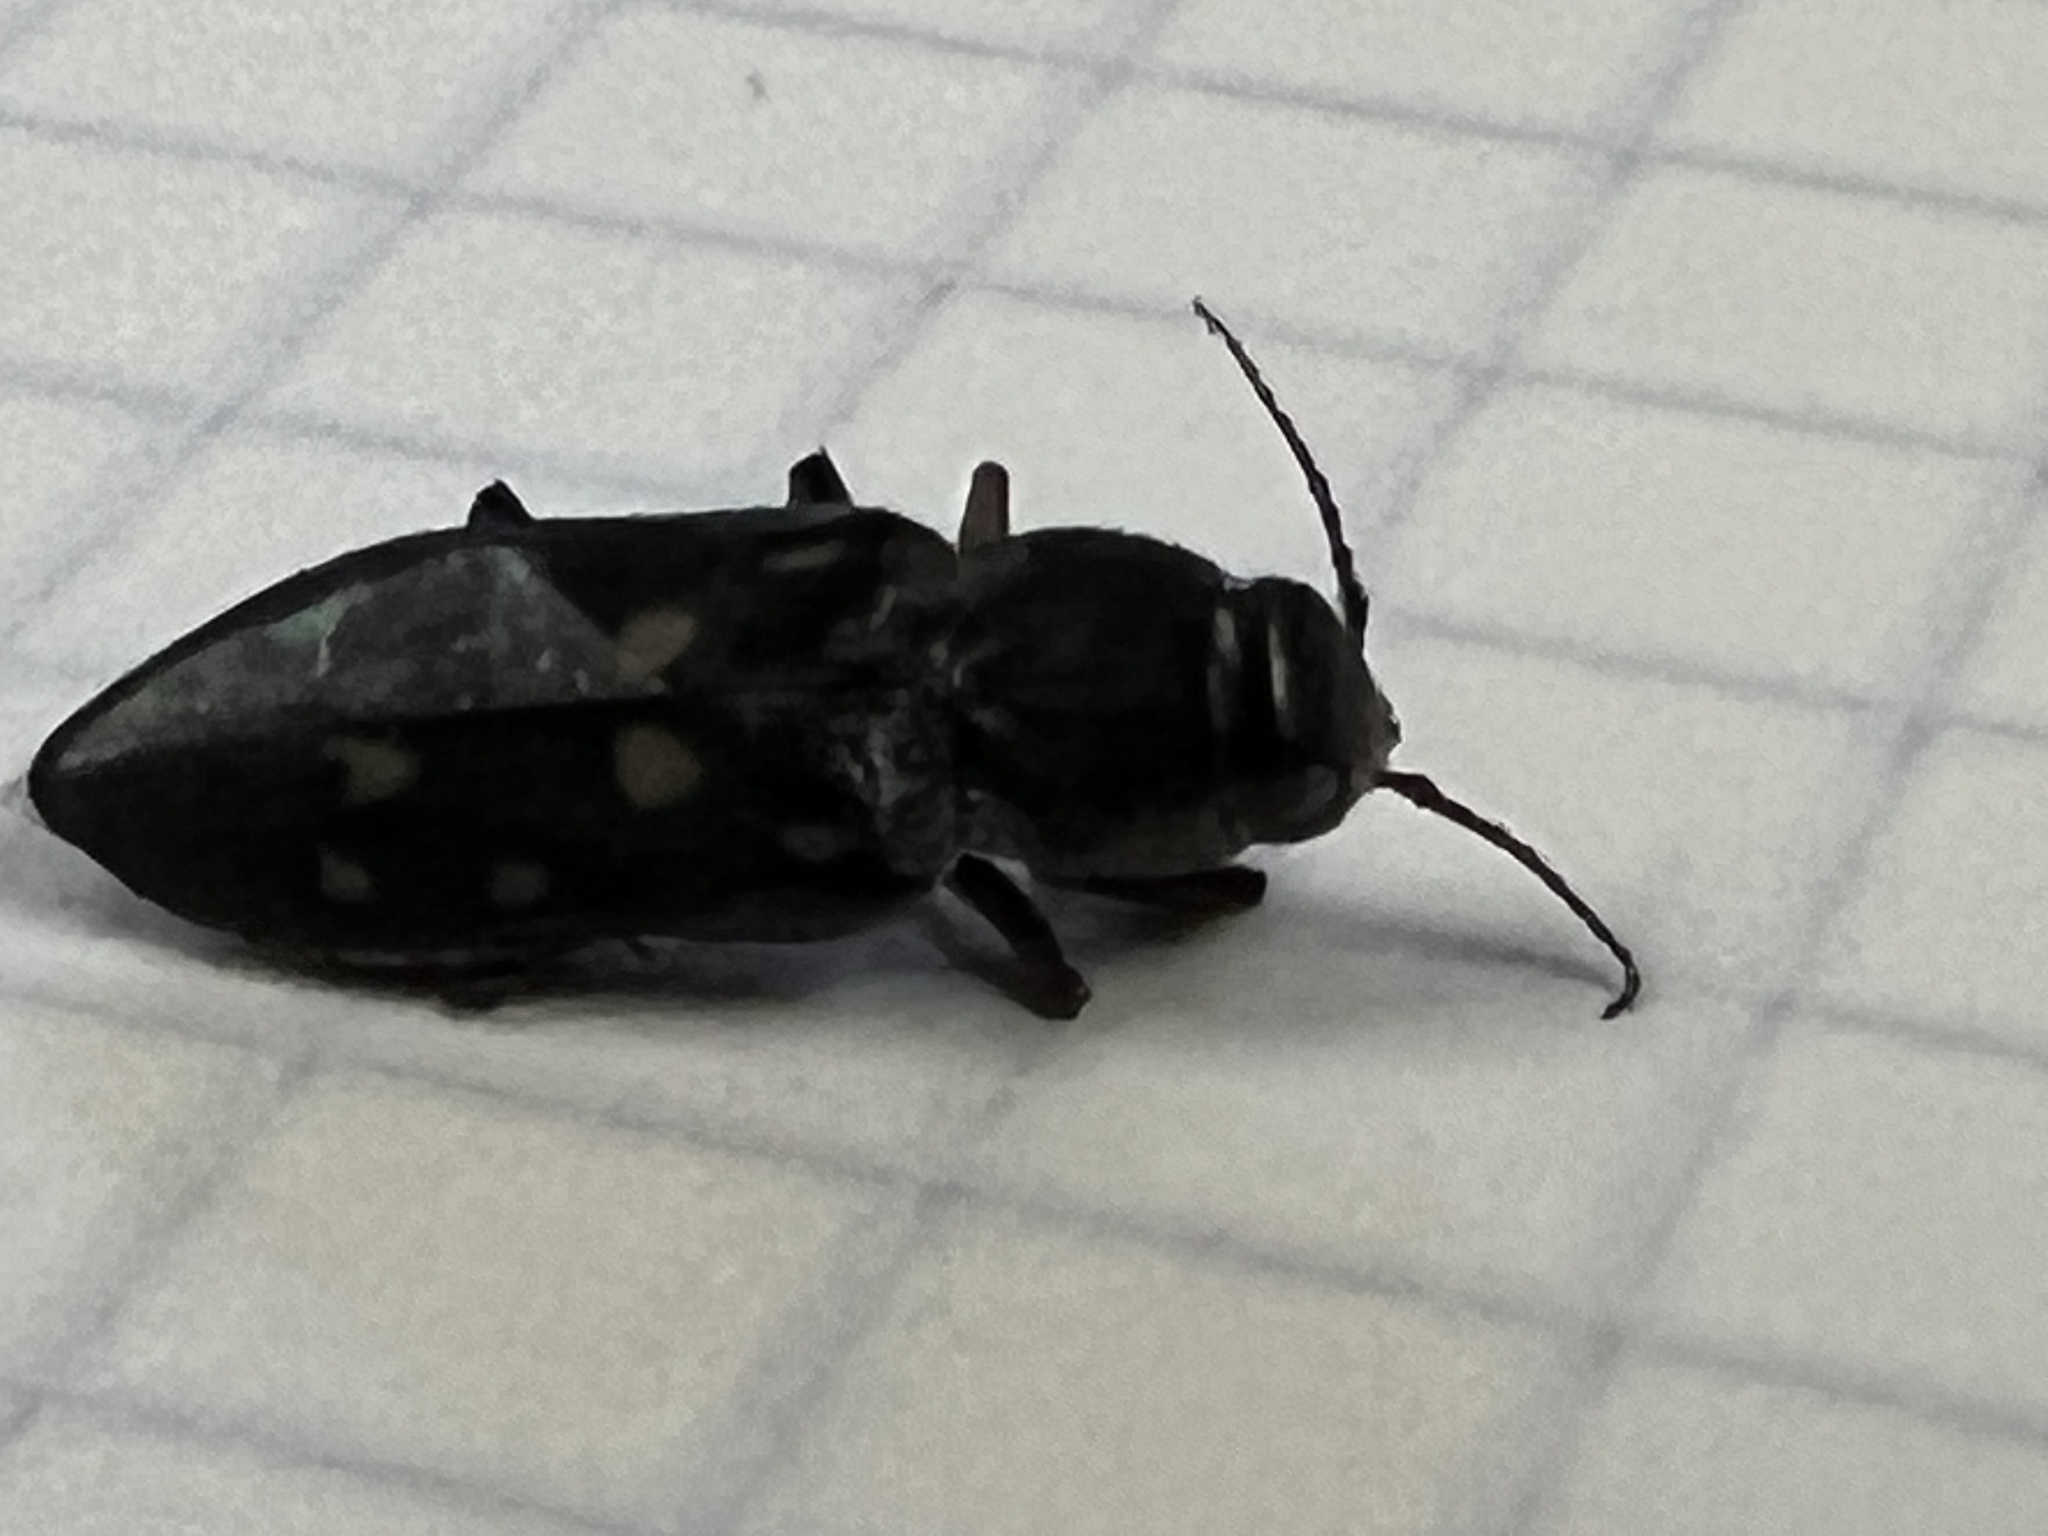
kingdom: Animalia
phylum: Arthropoda
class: Insecta
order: Coleoptera
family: Buprestidae
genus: Melanophila
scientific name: Melanophila consputa
